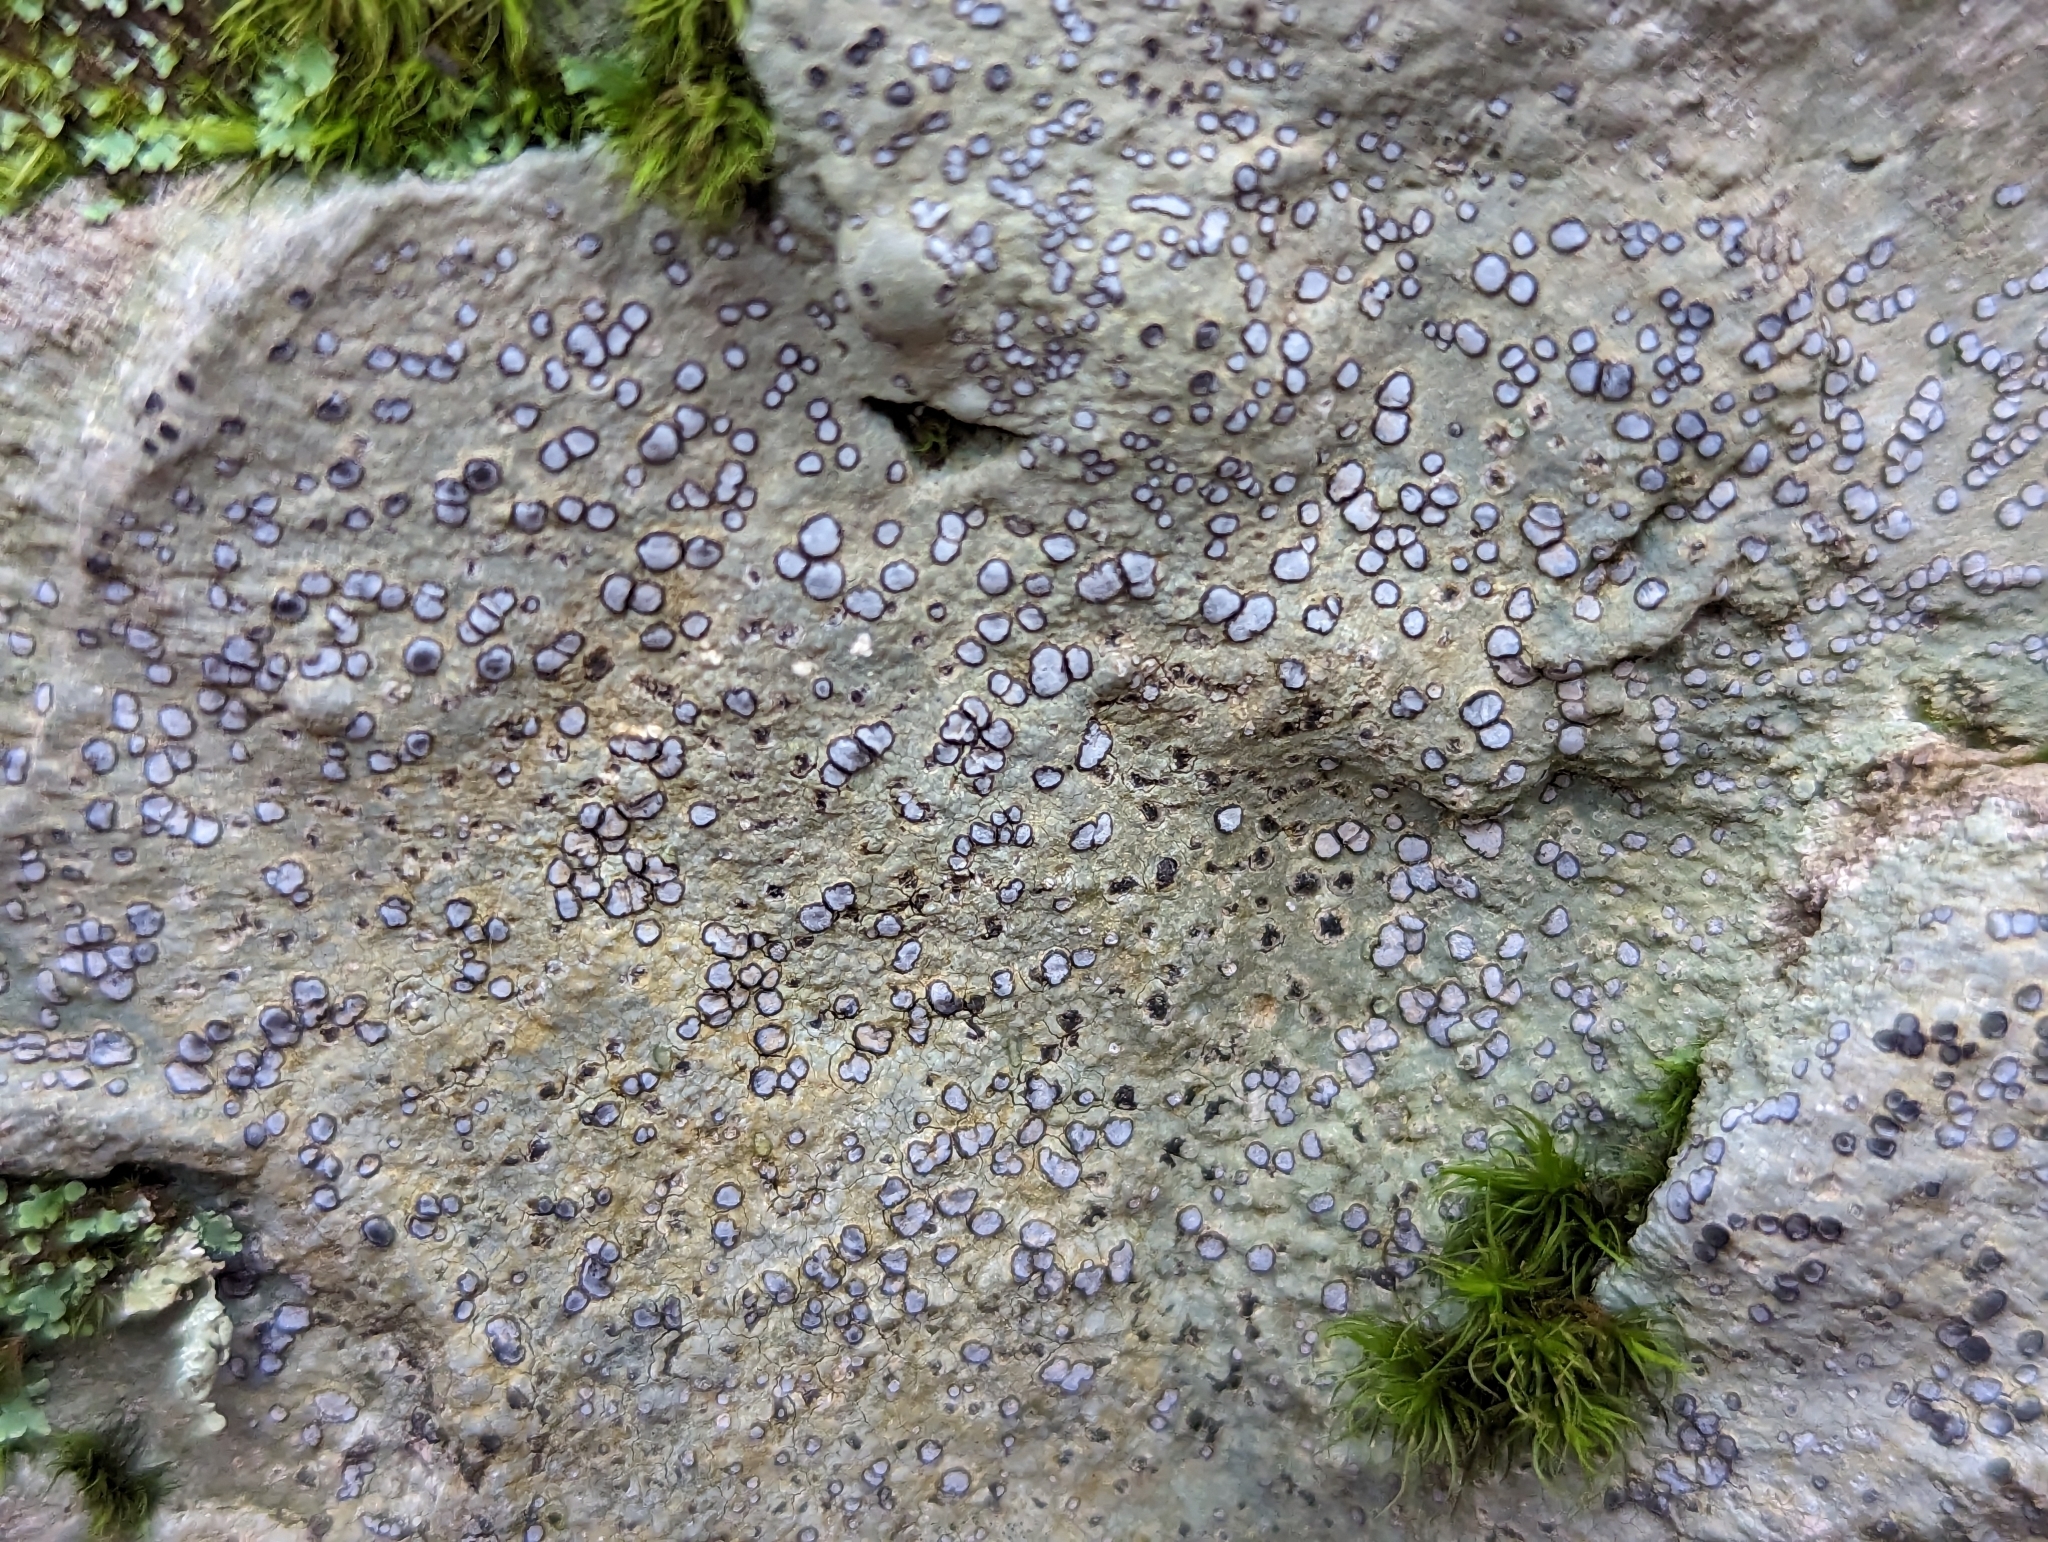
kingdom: Fungi
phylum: Ascomycota
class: Lecanoromycetes
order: Lecideales
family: Lecideaceae
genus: Porpidia
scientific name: Porpidia albocaerulescens
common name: Smokey-eyed boulder lichen
